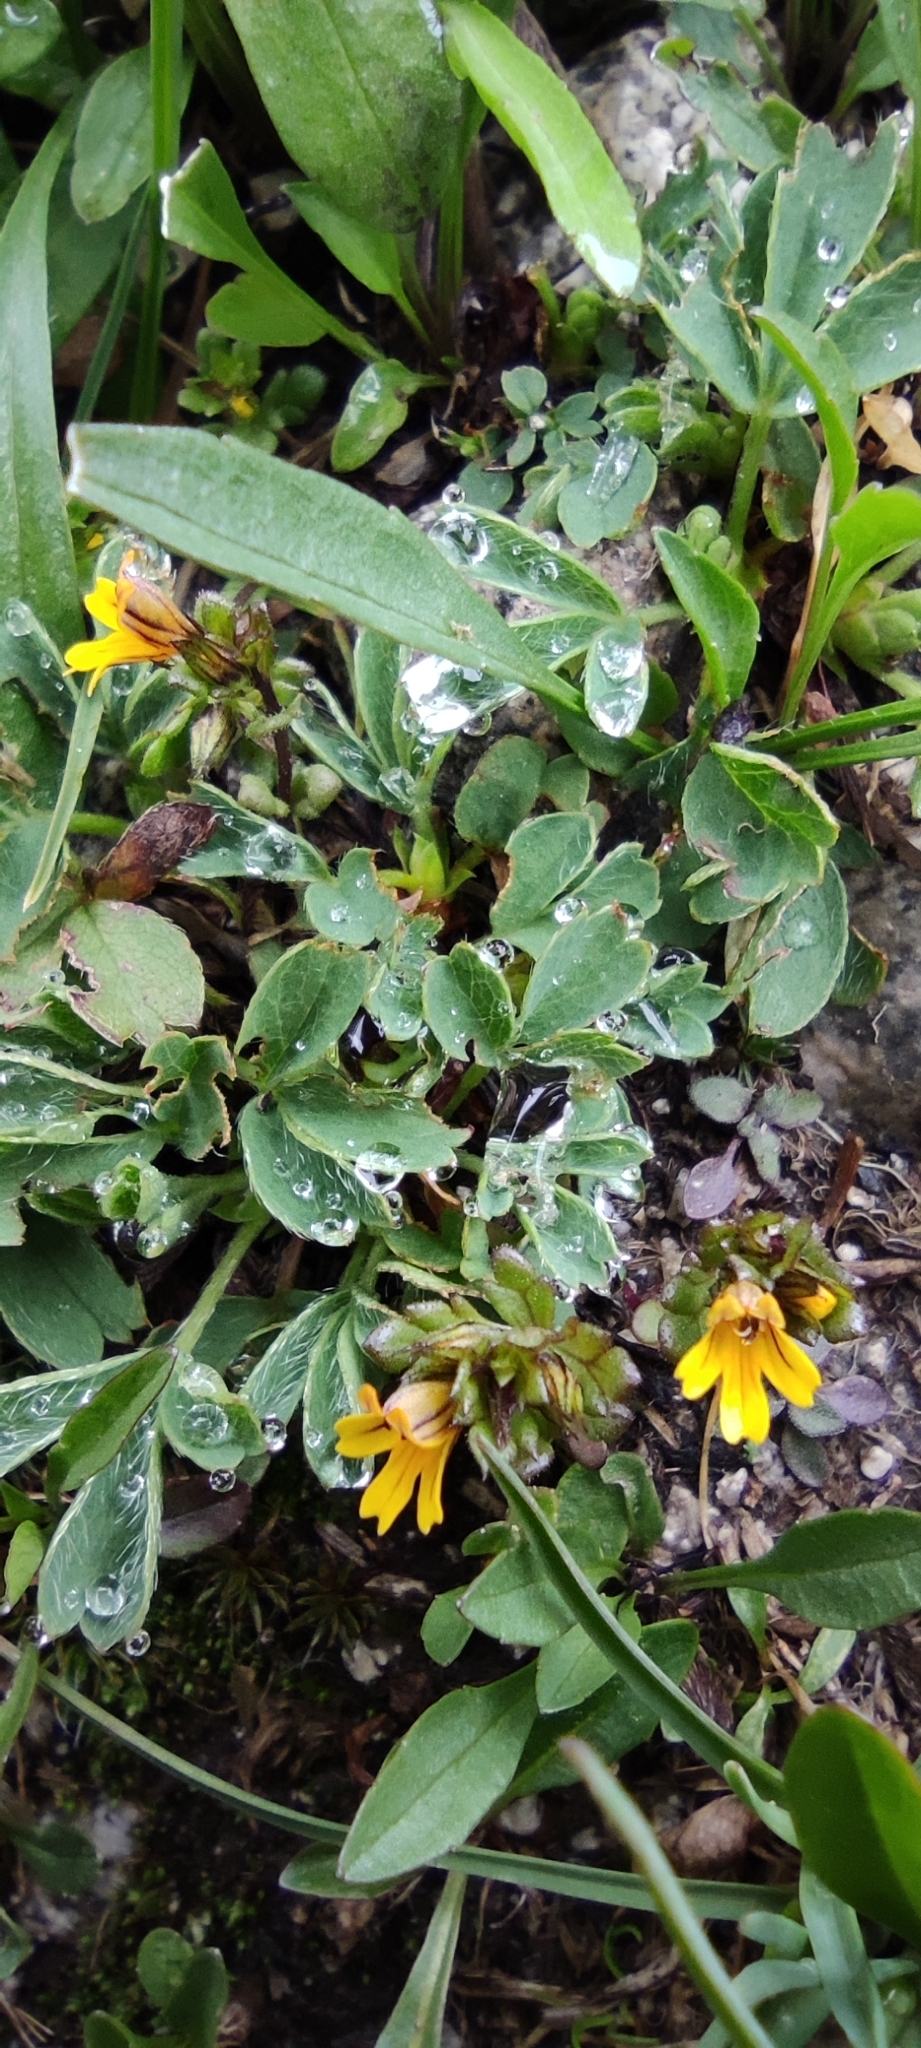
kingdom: Plantae
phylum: Tracheophyta
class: Magnoliopsida
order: Lamiales
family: Orobanchaceae
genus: Euphrasia
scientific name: Euphrasia minima
